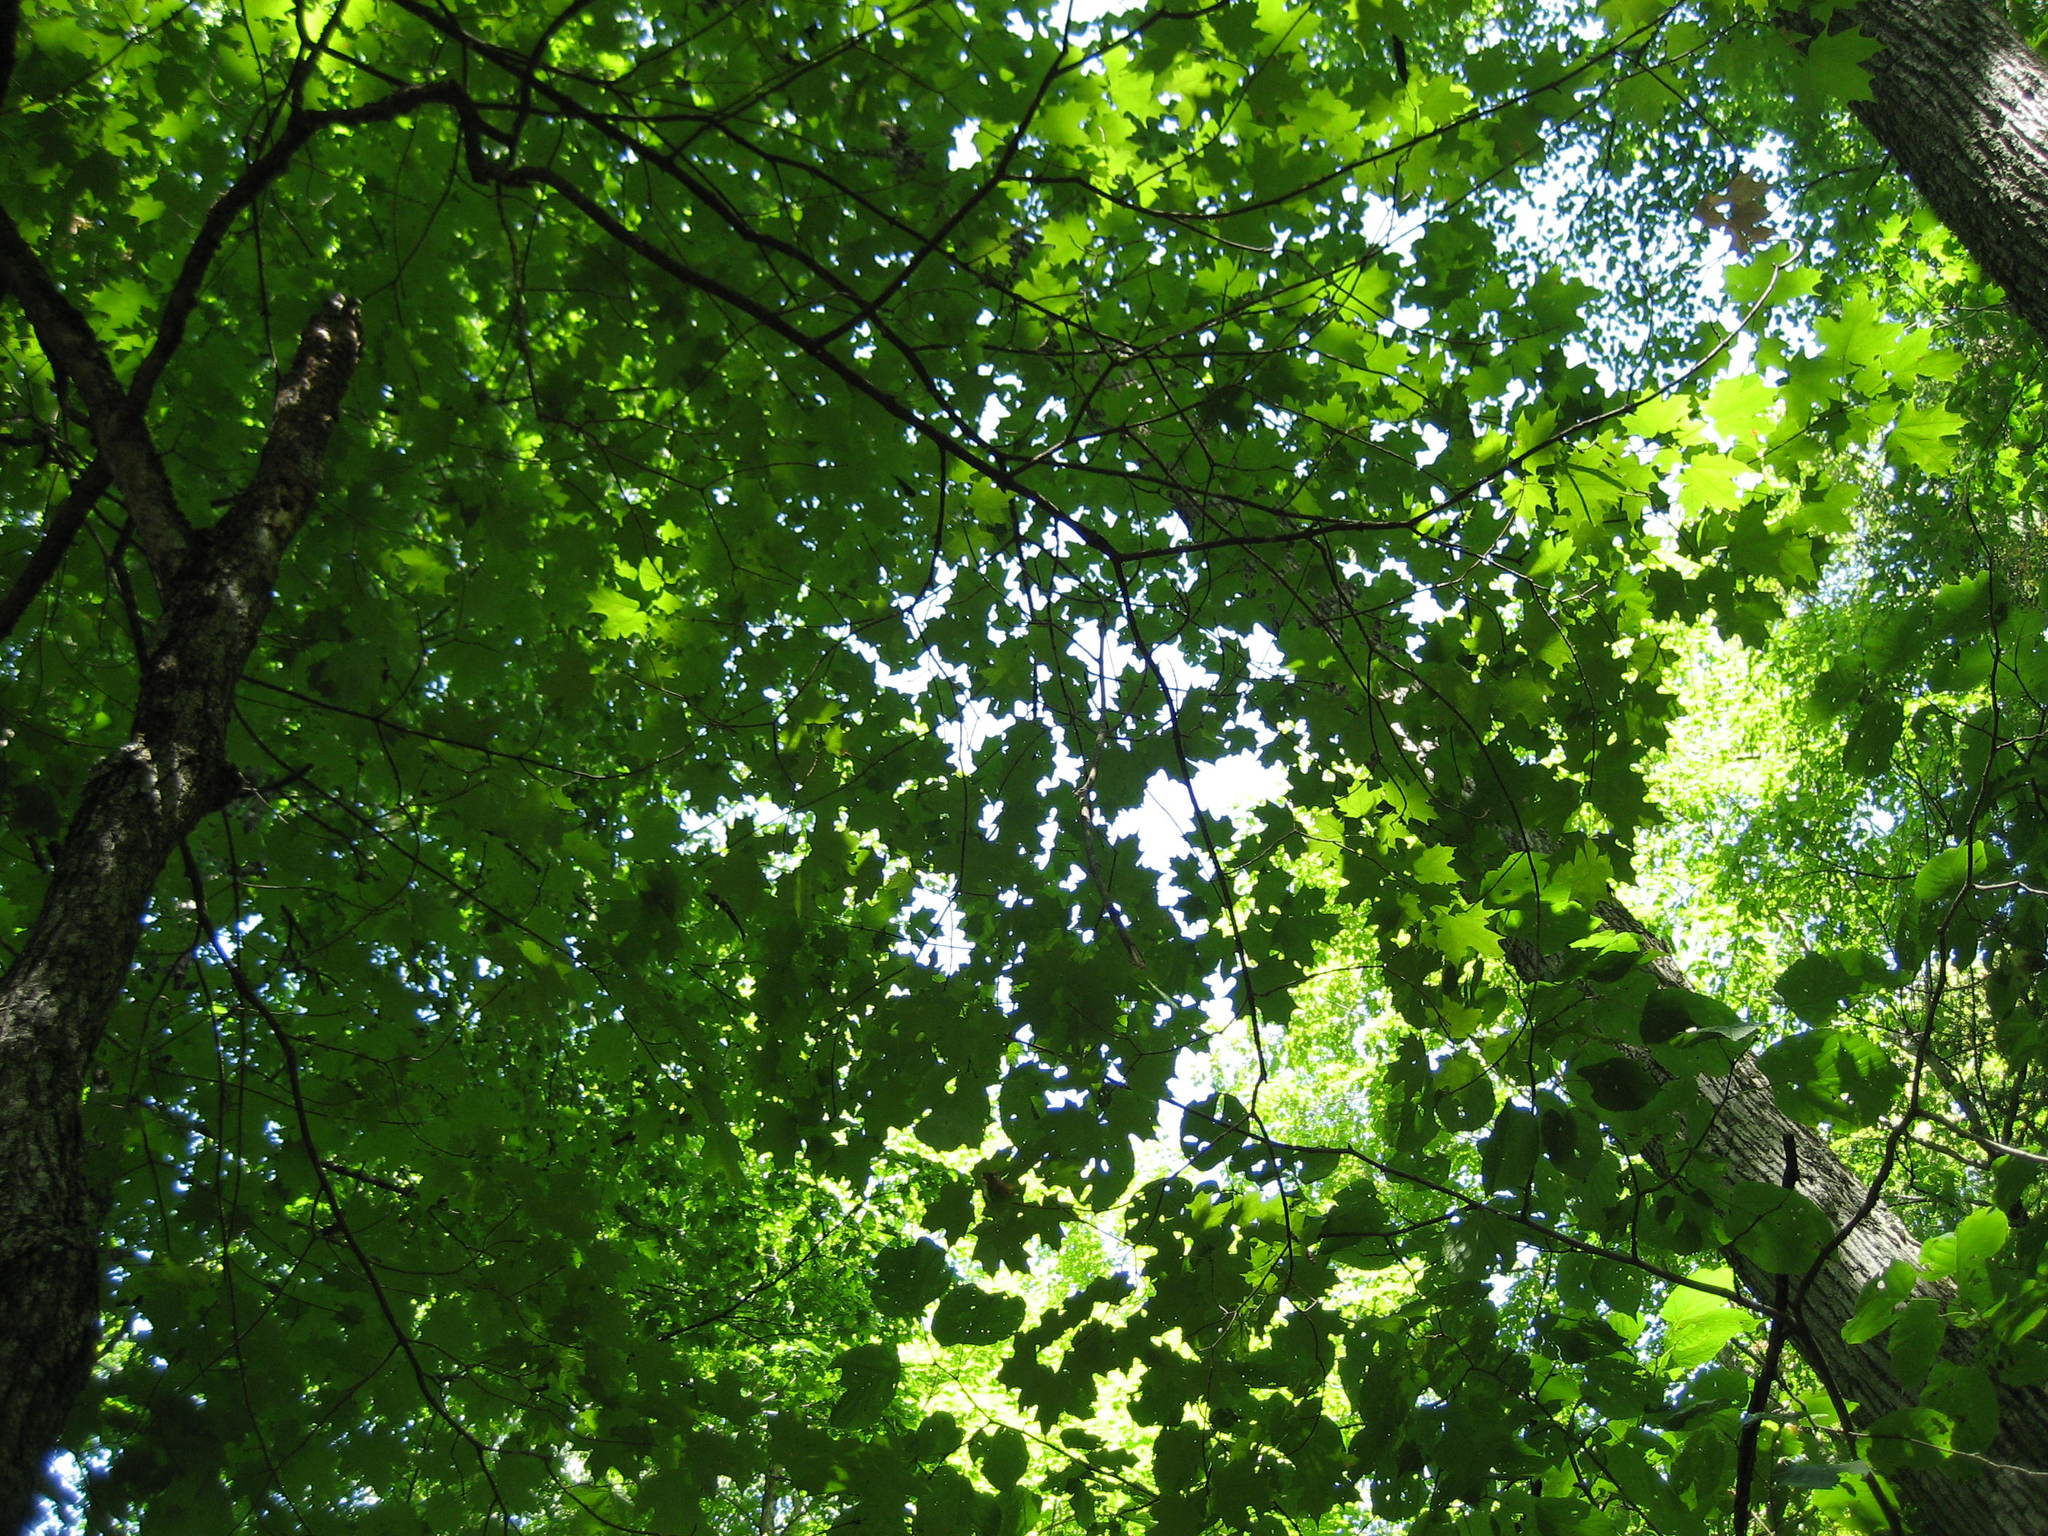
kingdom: Plantae
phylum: Tracheophyta
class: Magnoliopsida
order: Sapindales
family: Sapindaceae
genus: Acer
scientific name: Acer saccharum
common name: Sugar maple
